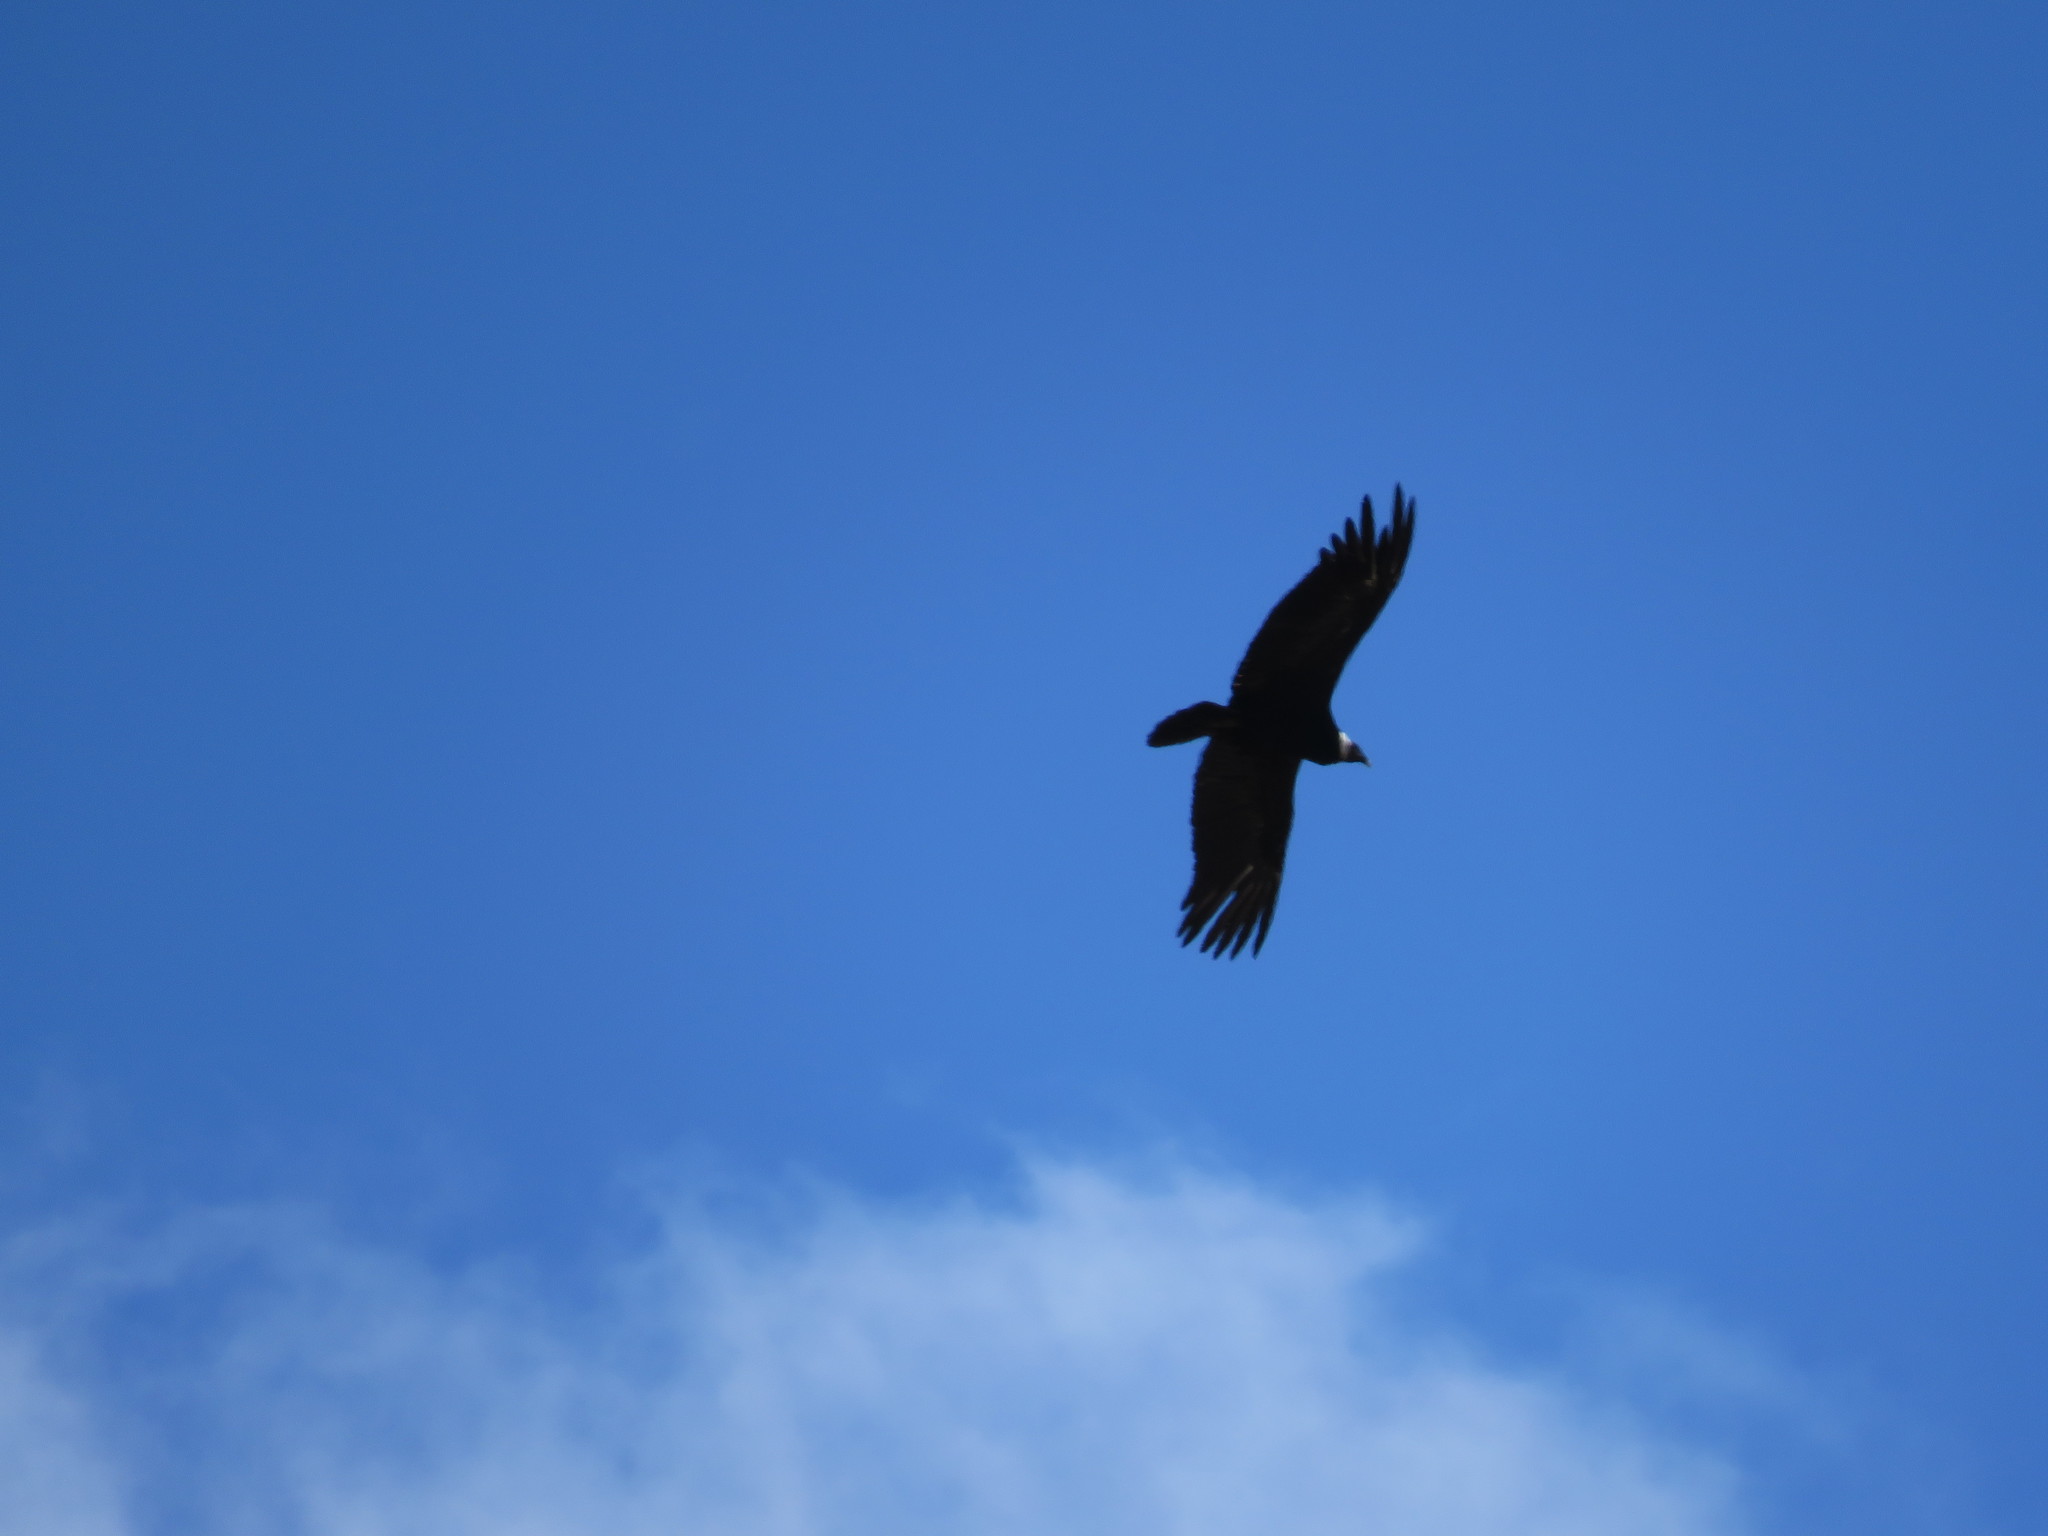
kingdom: Animalia
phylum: Chordata
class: Aves
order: Accipitriformes
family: Cathartidae
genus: Vultur
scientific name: Vultur gryphus
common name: Andean condor
